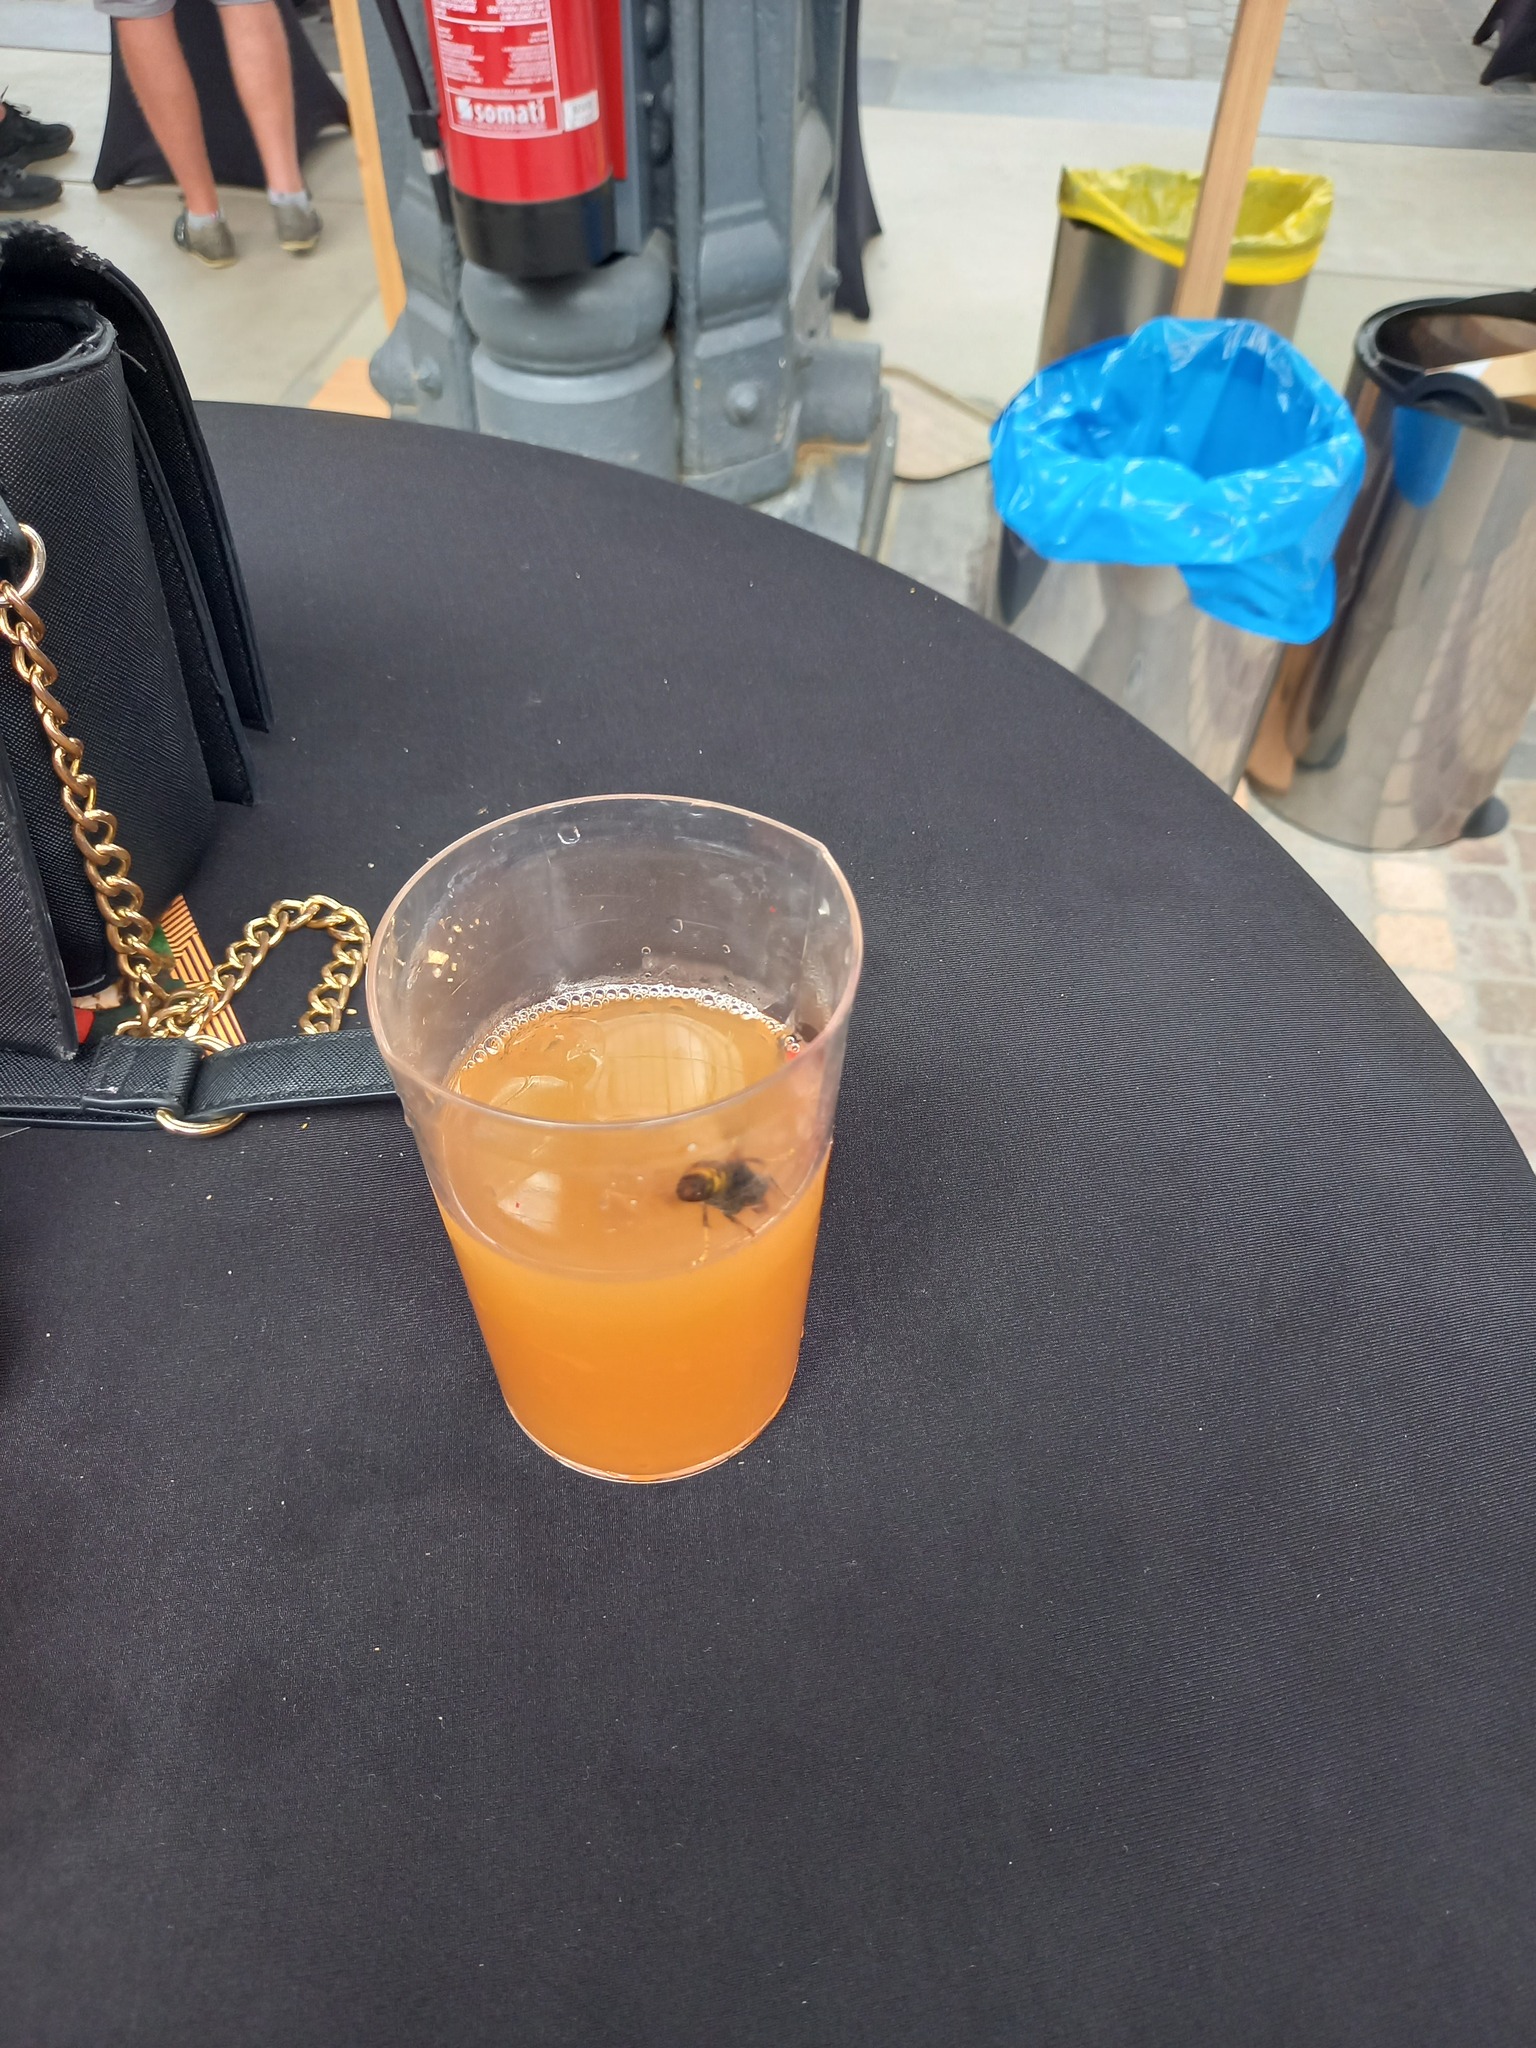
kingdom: Animalia
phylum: Arthropoda
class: Insecta
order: Hymenoptera
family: Vespidae
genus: Vespa
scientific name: Vespa velutina
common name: Asian hornet
